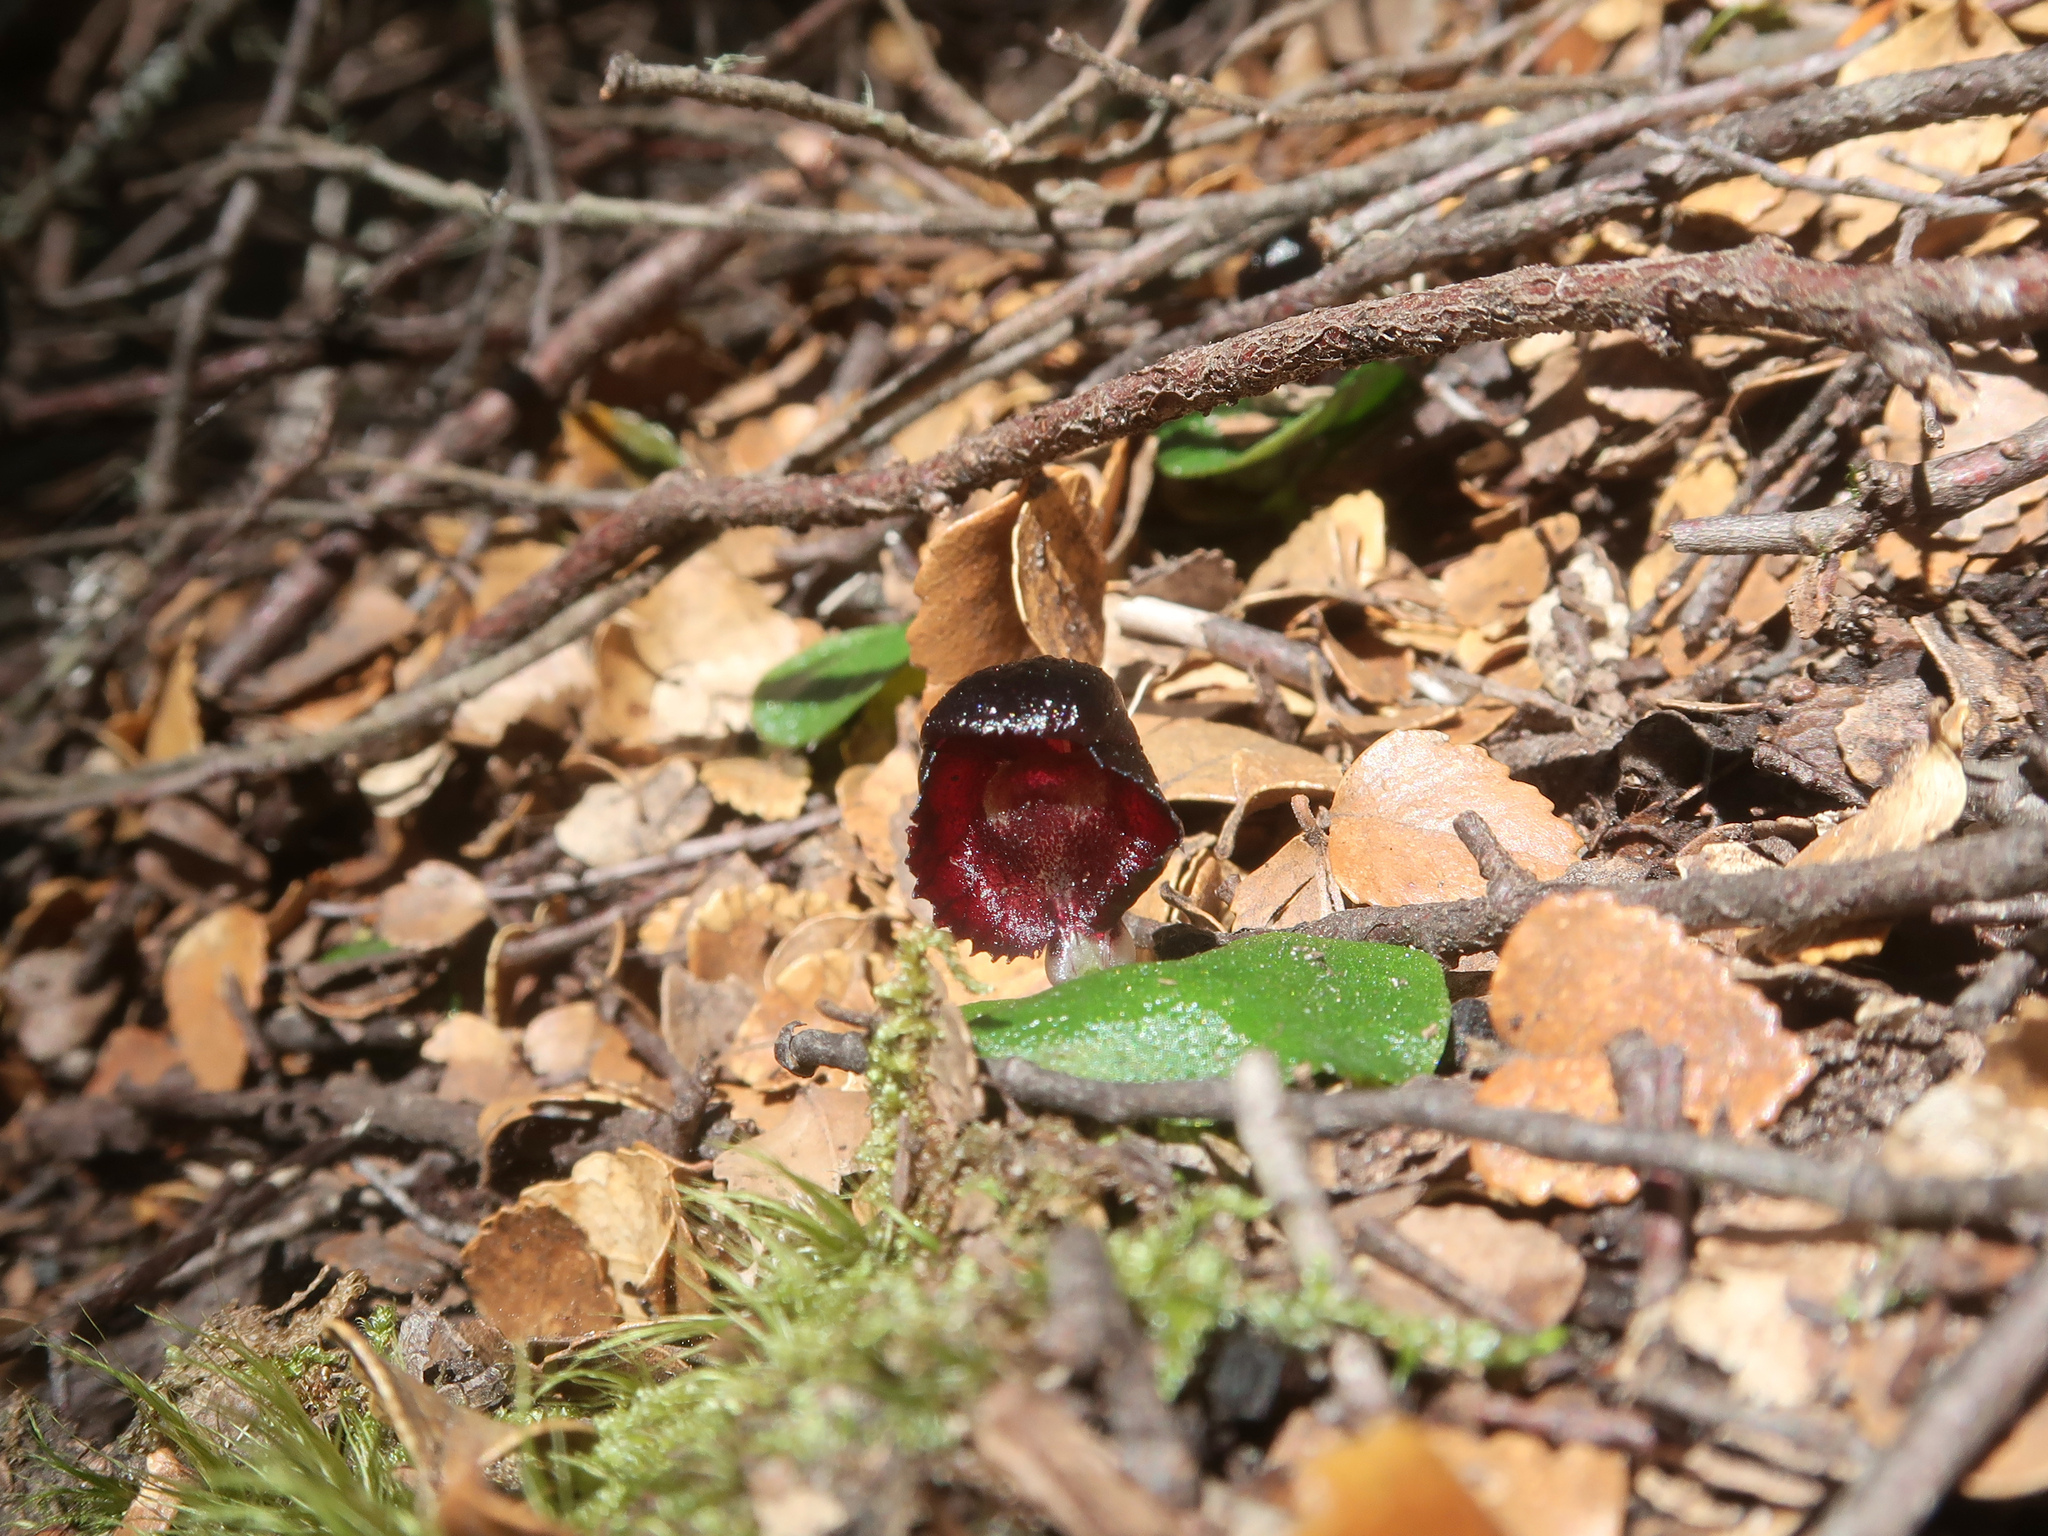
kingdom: Plantae
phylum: Tracheophyta
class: Liliopsida
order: Asparagales
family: Orchidaceae
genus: Corybas
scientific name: Corybas diemenicus
